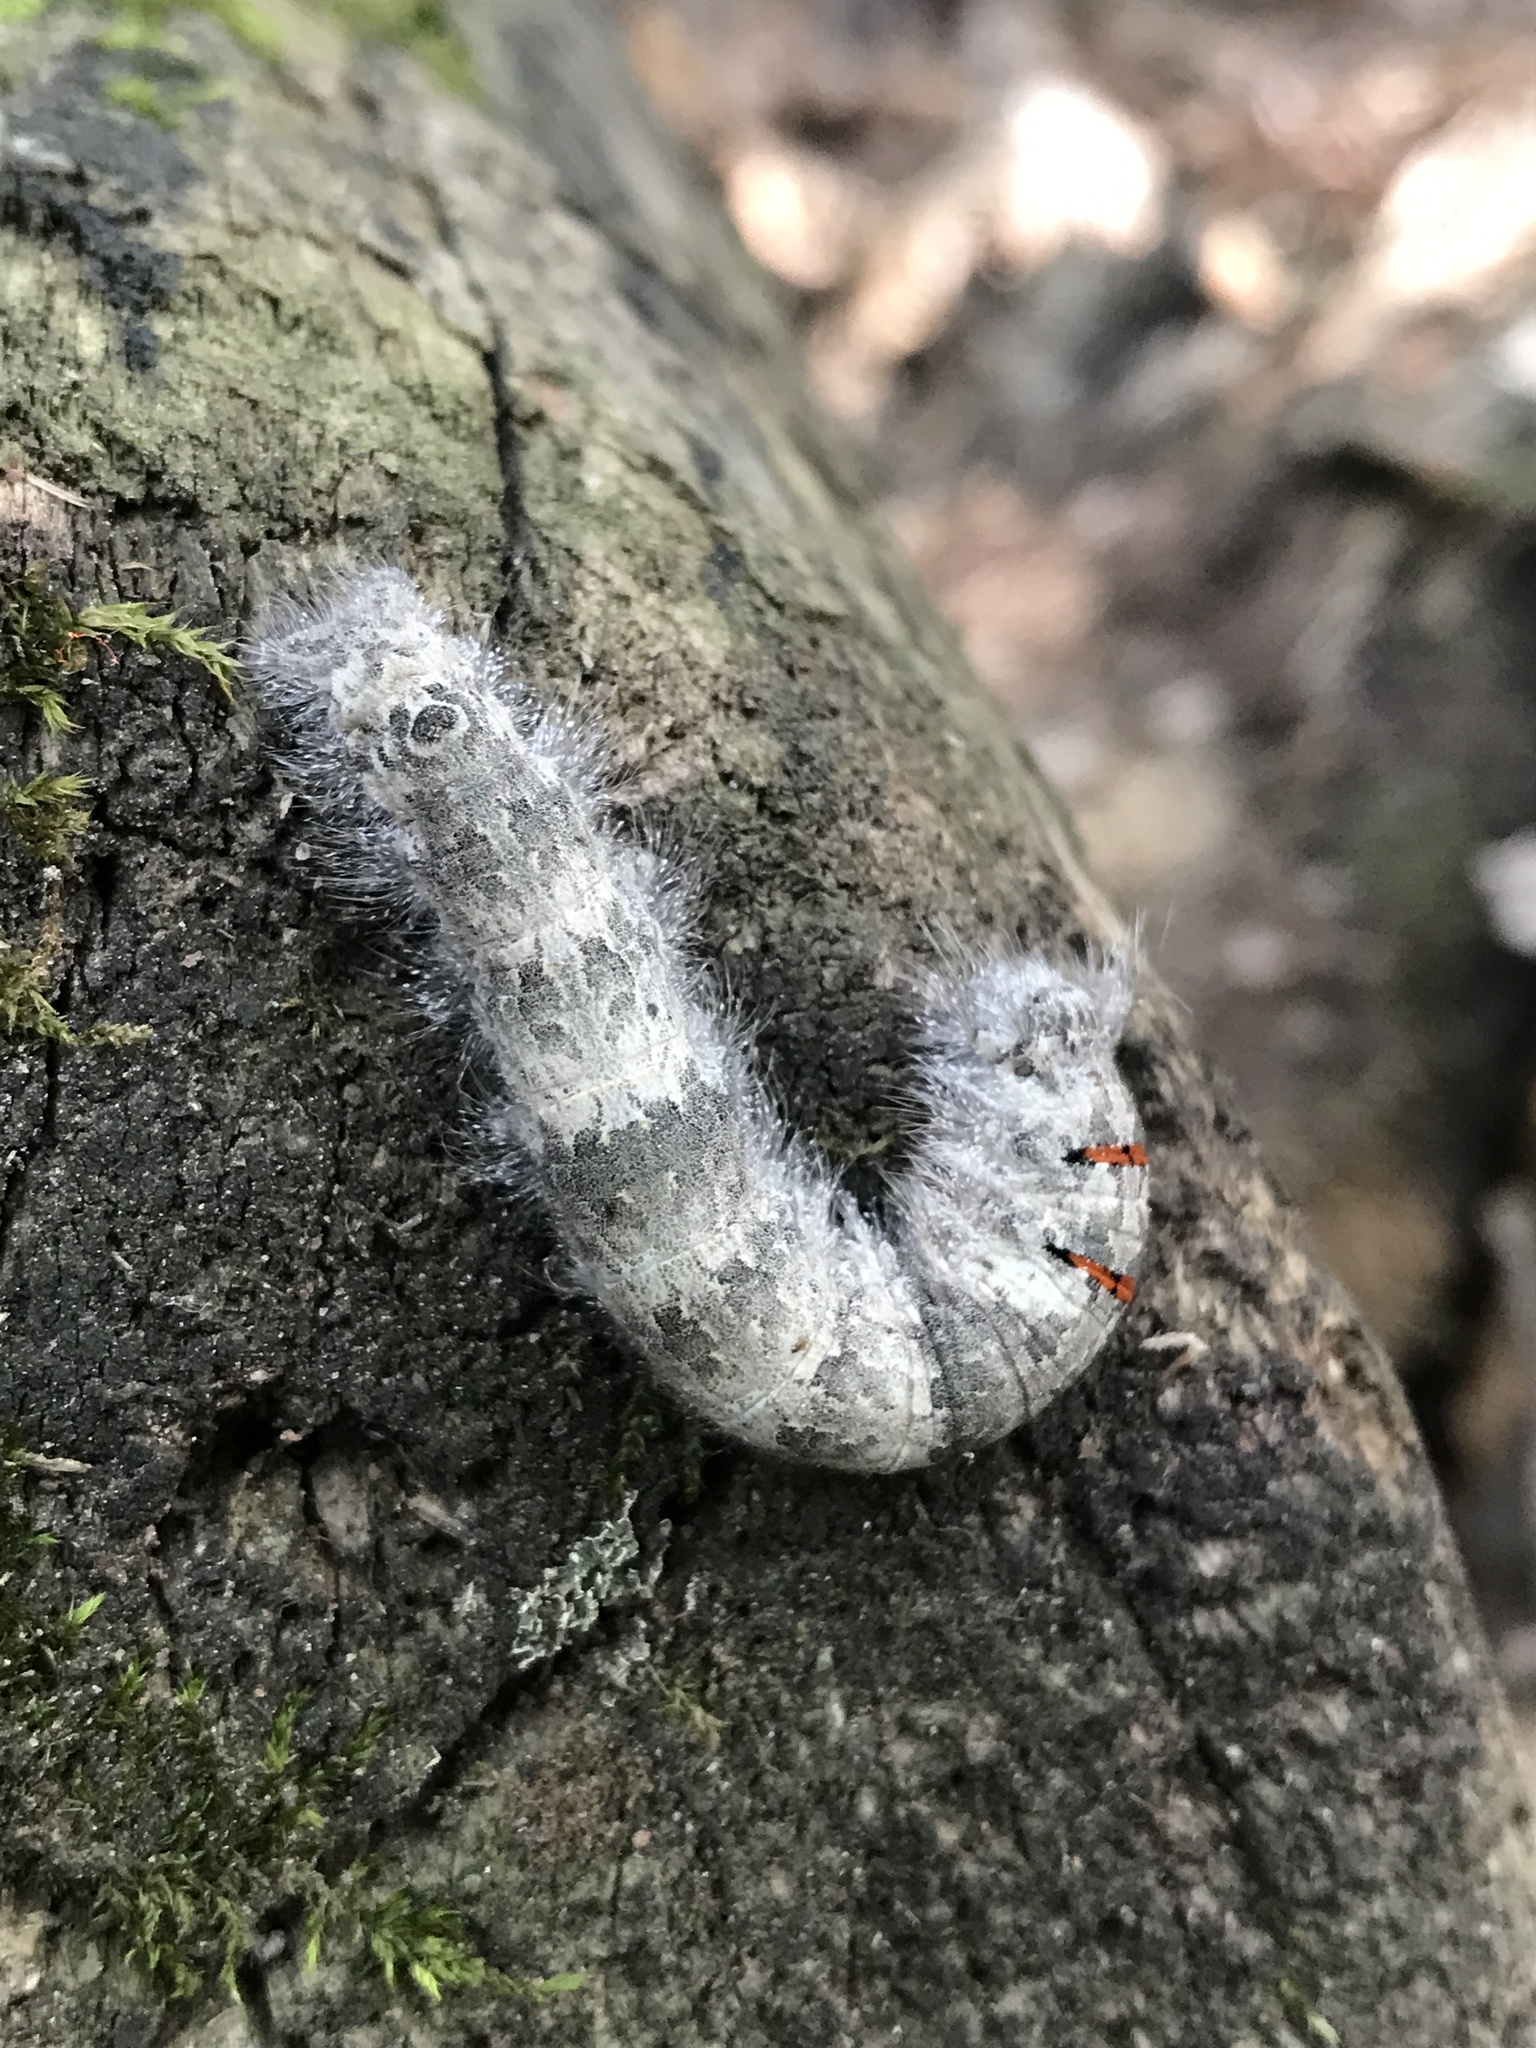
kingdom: Animalia
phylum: Arthropoda
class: Insecta
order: Lepidoptera
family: Lasiocampidae
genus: Phyllodesma
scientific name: Phyllodesma americana
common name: American lappet moth
